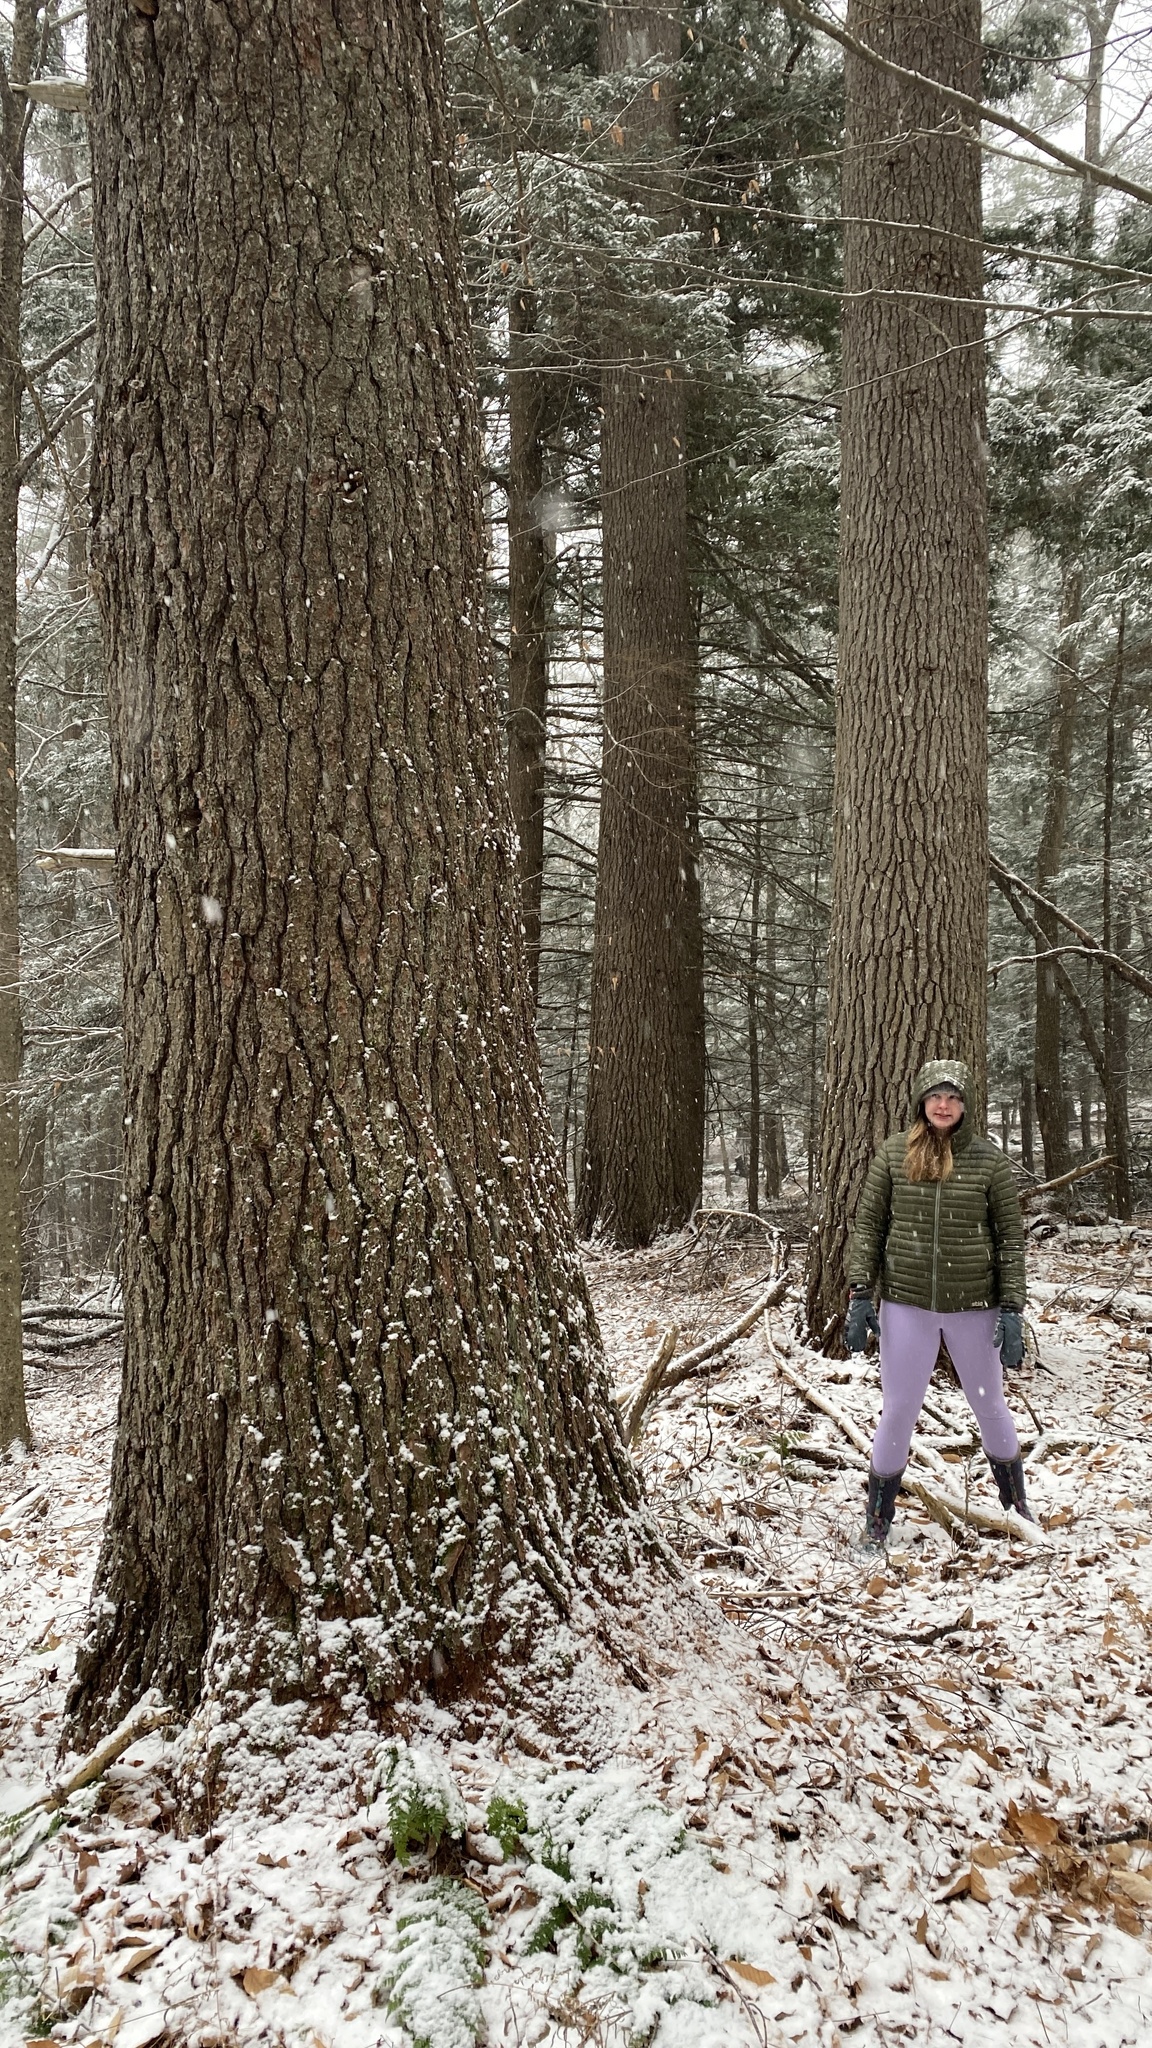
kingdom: Plantae
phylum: Tracheophyta
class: Pinopsida
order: Pinales
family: Pinaceae
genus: Pinus
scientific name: Pinus strobus
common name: Weymouth pine
